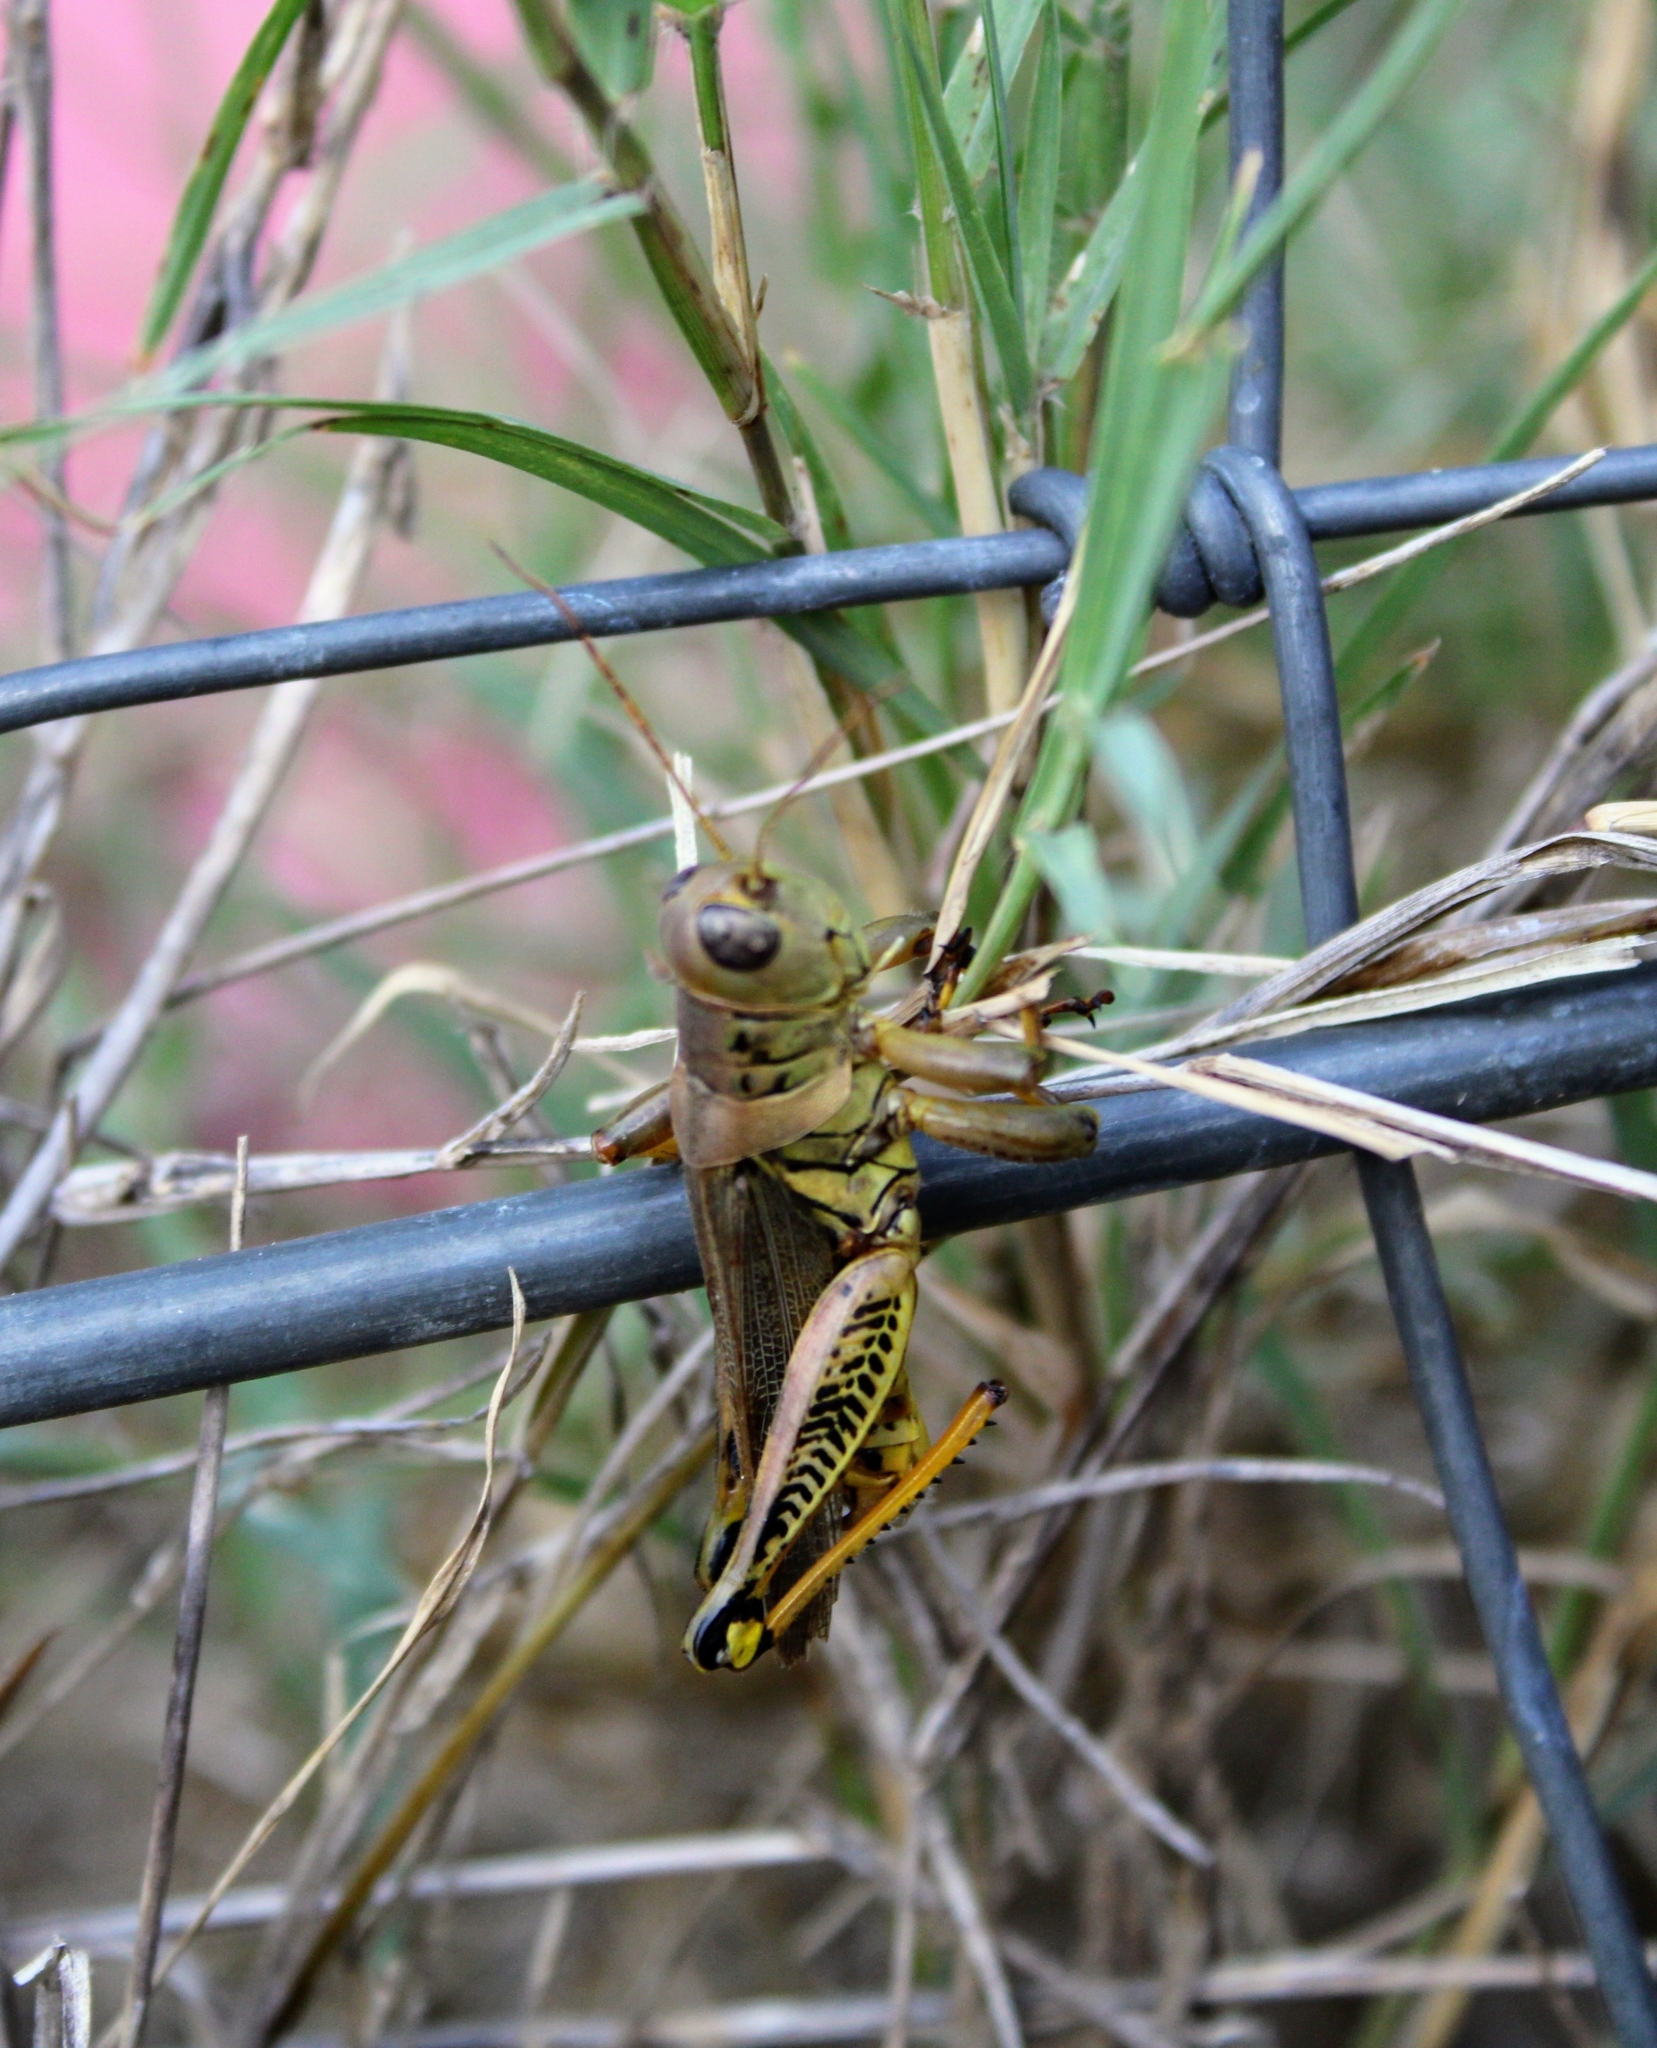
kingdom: Animalia
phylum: Arthropoda
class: Insecta
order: Orthoptera
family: Acrididae
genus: Melanoplus
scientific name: Melanoplus differentialis
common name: Differential grasshopper
